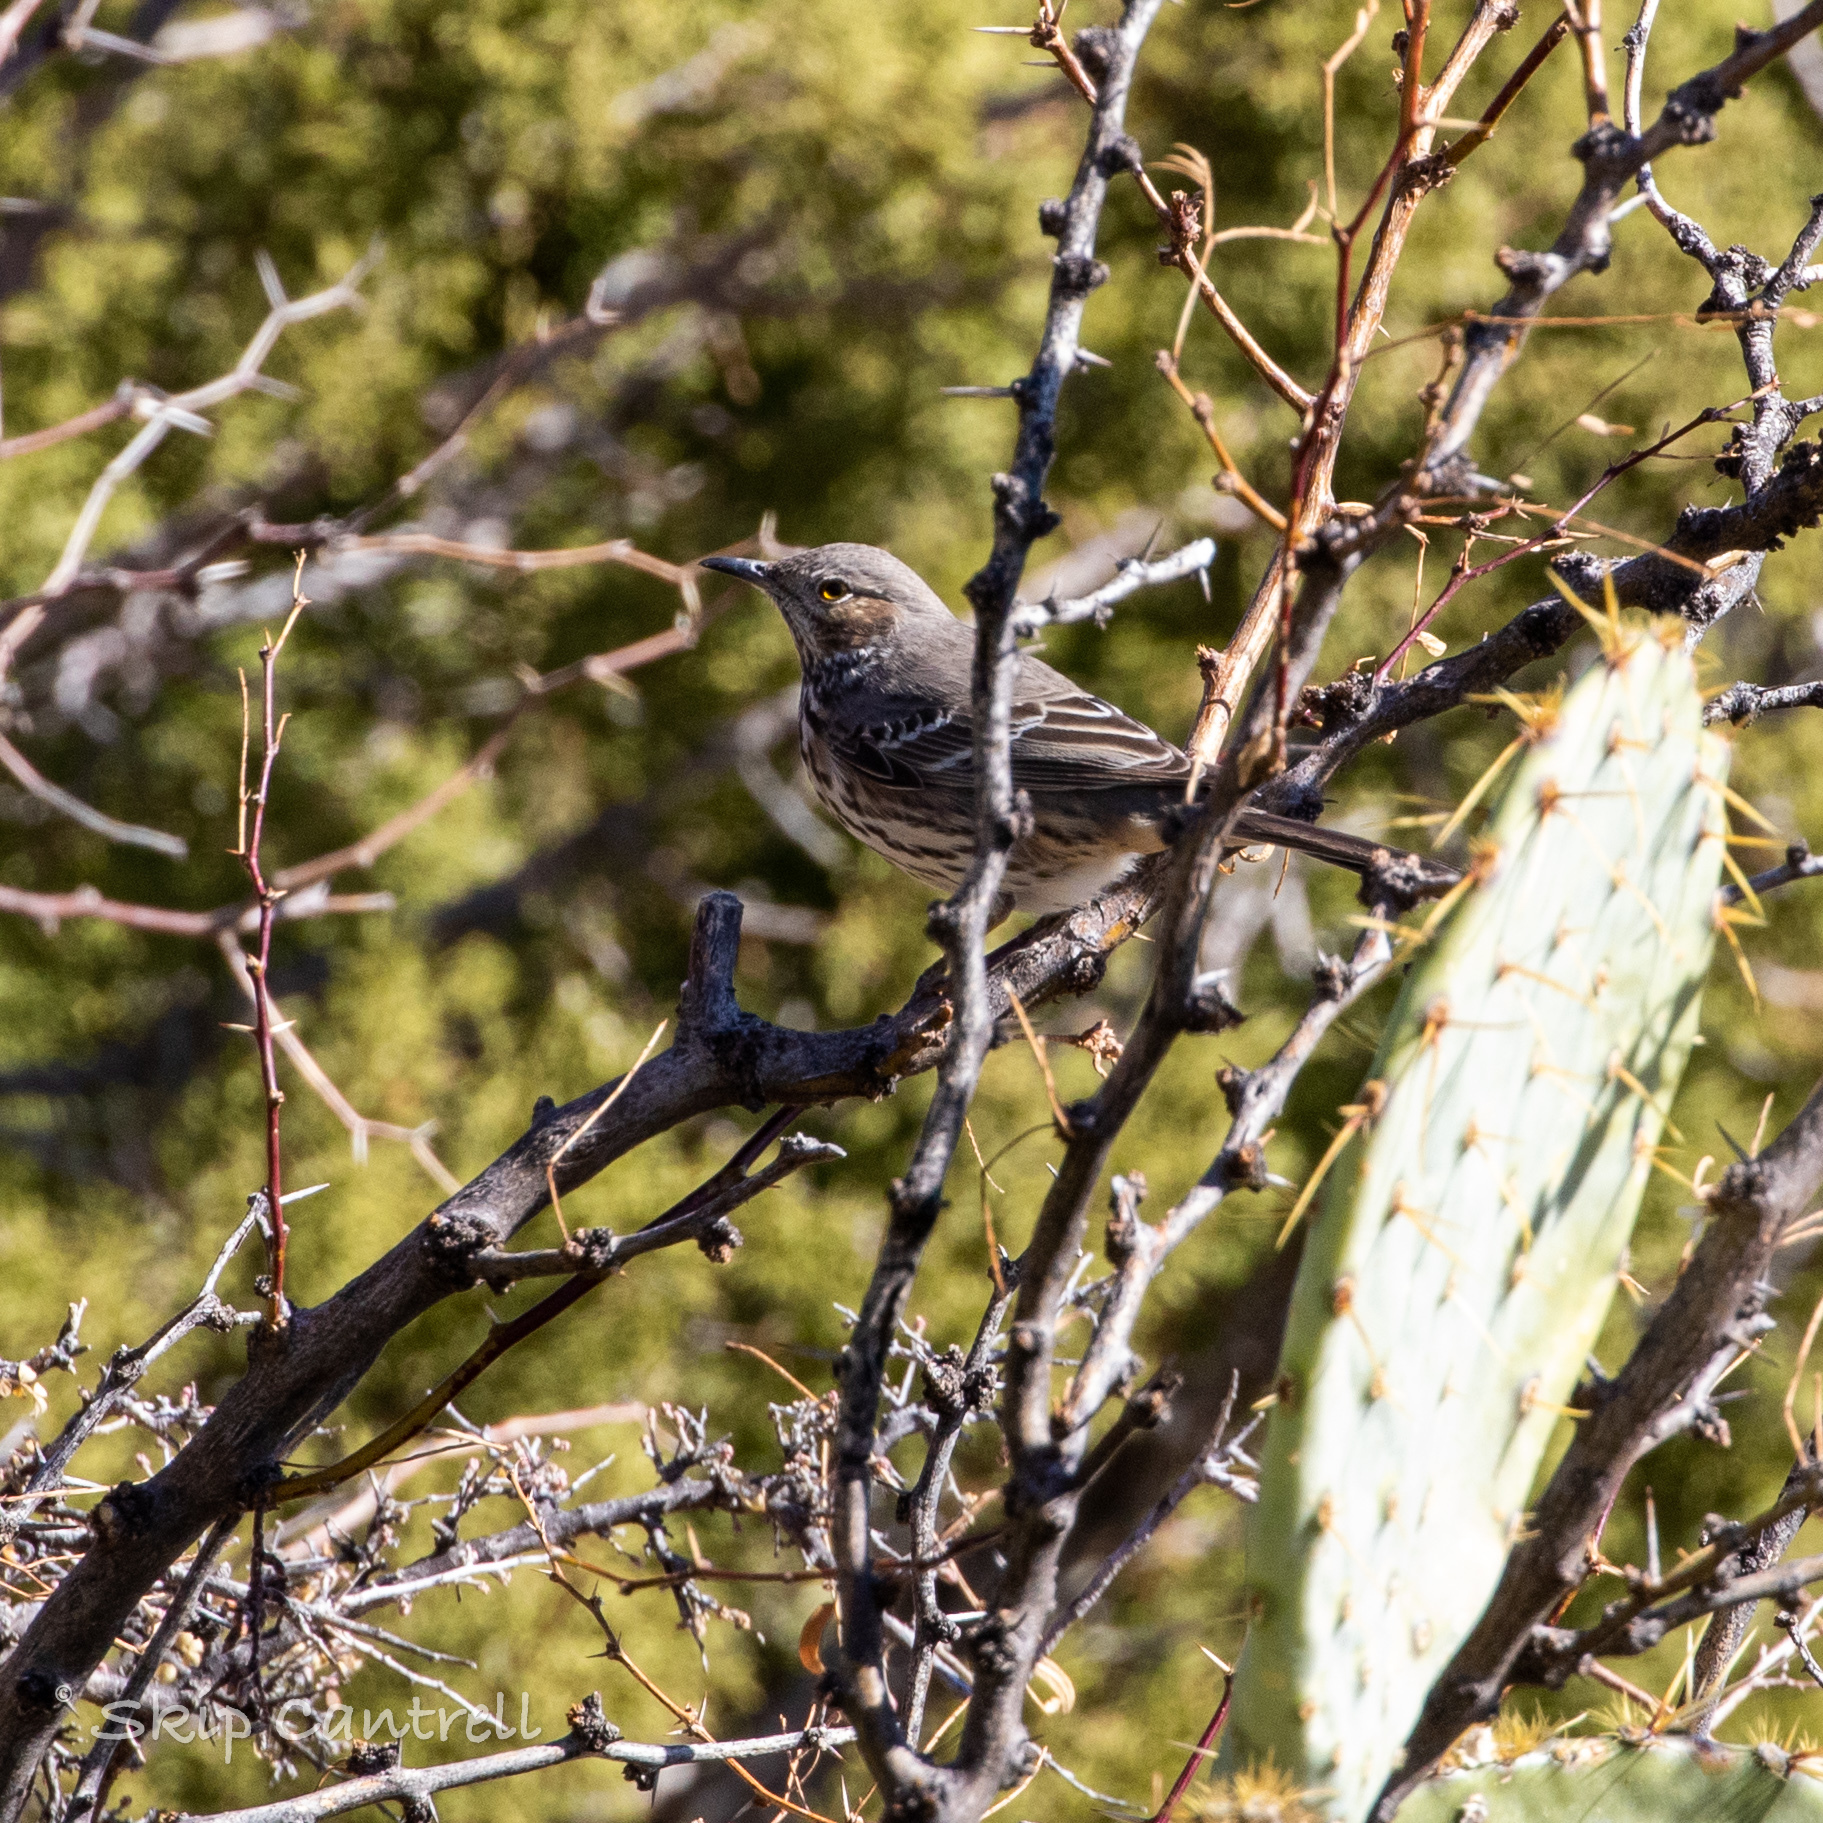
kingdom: Animalia
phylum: Chordata
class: Aves
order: Passeriformes
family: Mimidae
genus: Oreoscoptes
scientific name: Oreoscoptes montanus
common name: Sage thrasher
